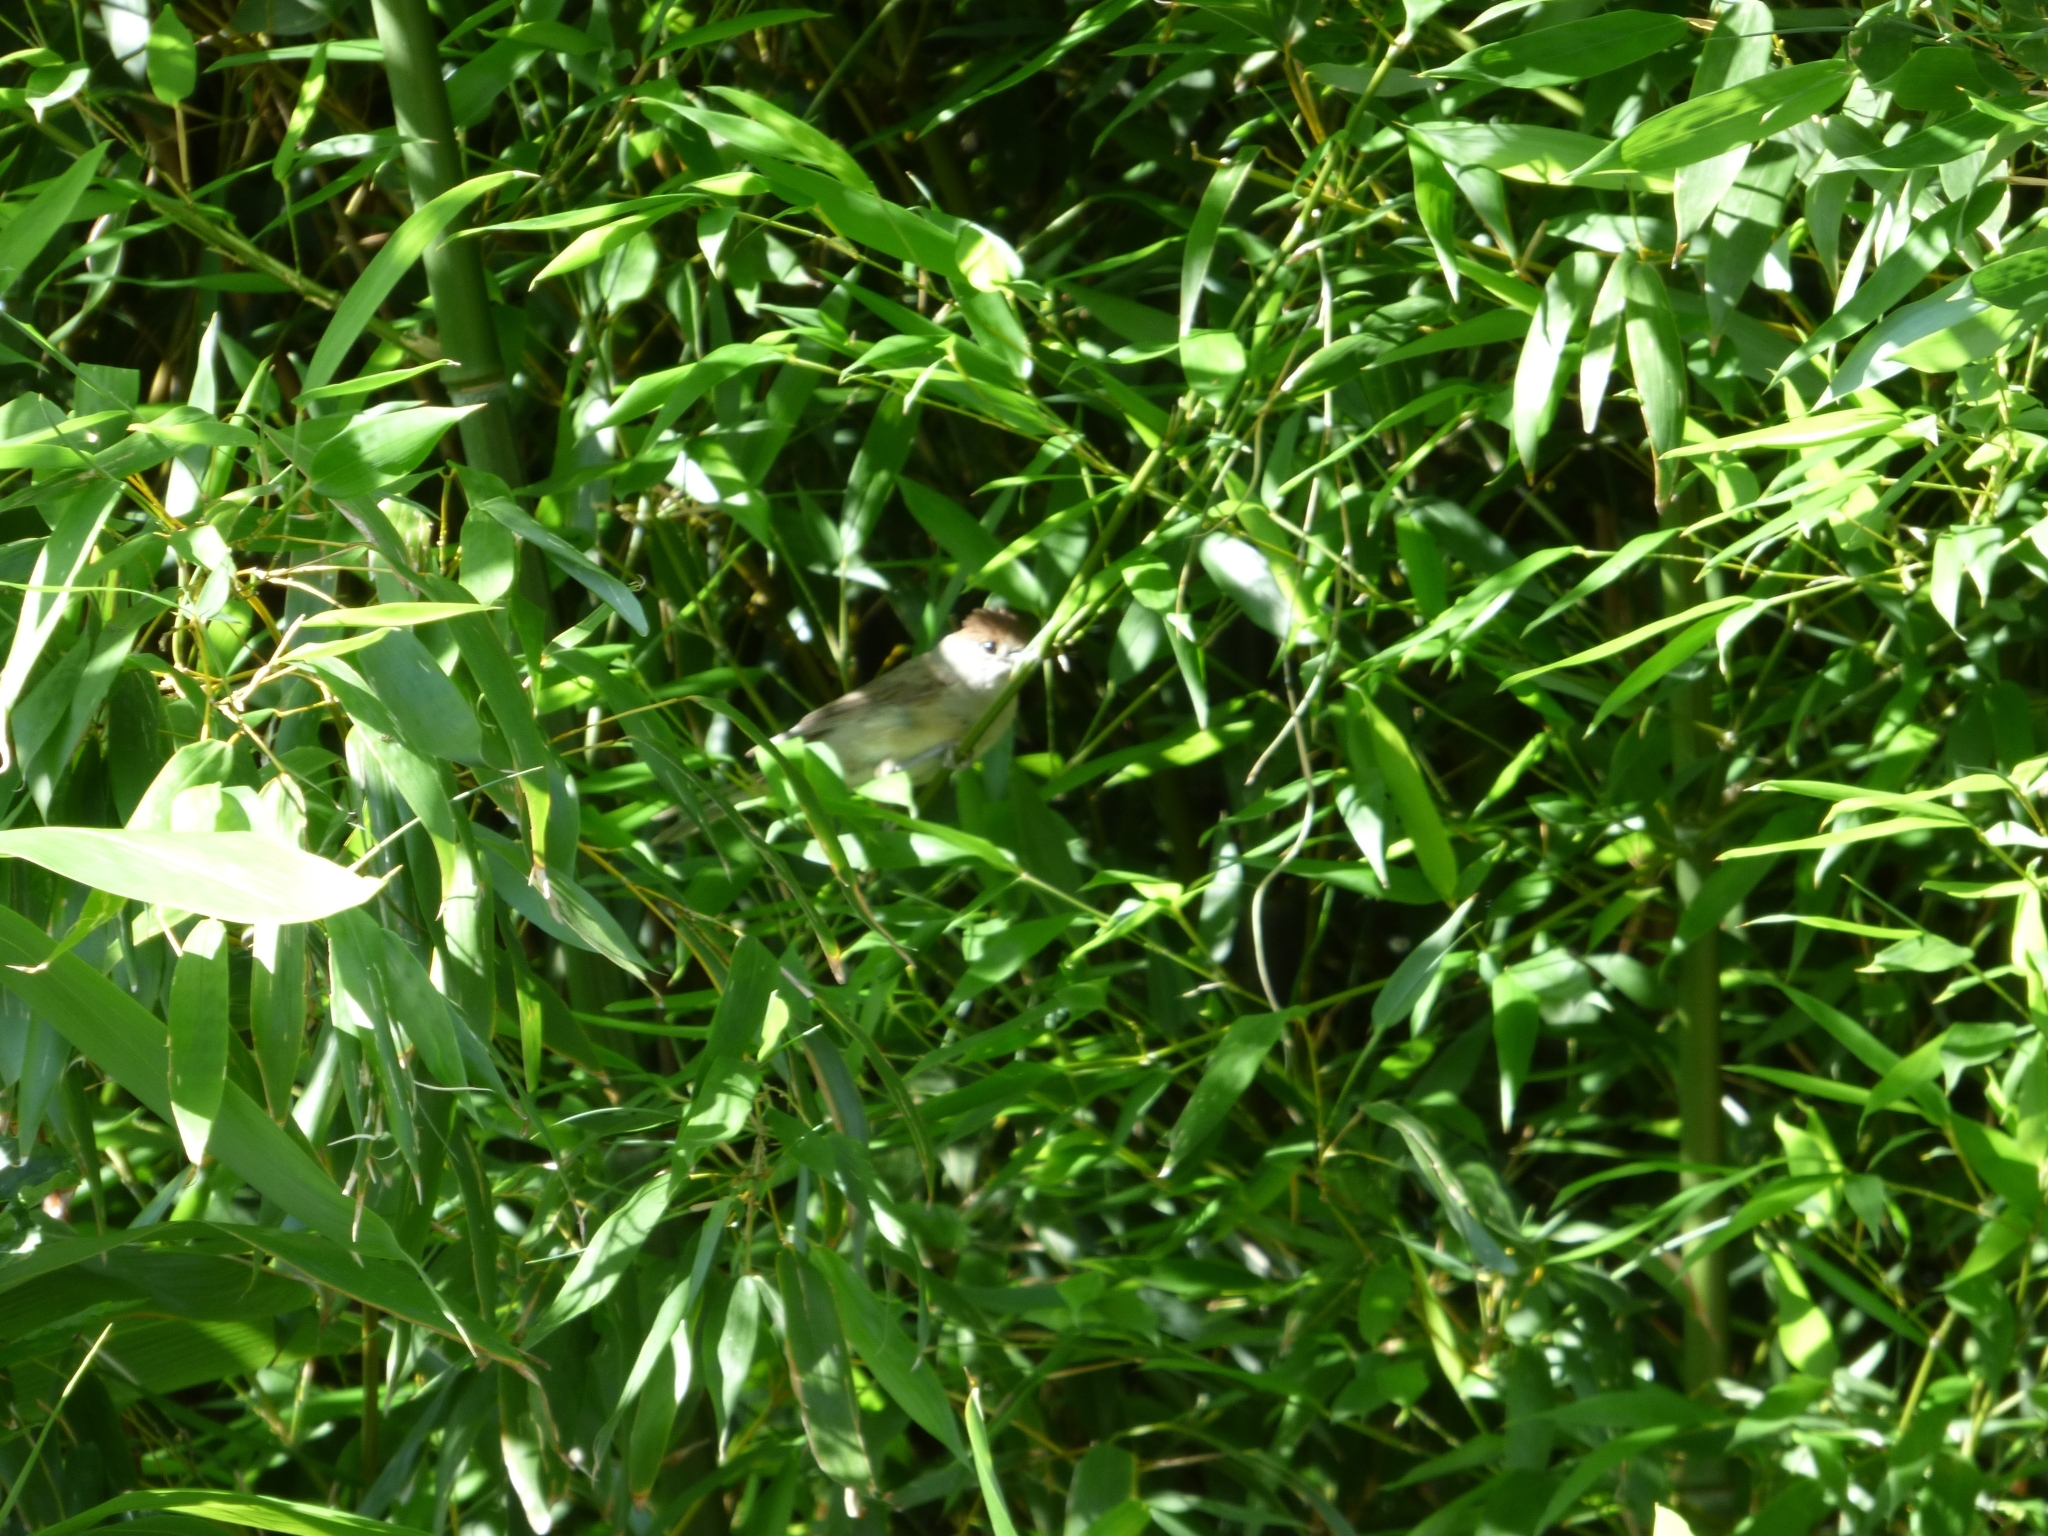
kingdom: Animalia
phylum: Chordata
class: Aves
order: Passeriformes
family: Sylviidae
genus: Sylvia
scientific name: Sylvia atricapilla
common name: Eurasian blackcap
